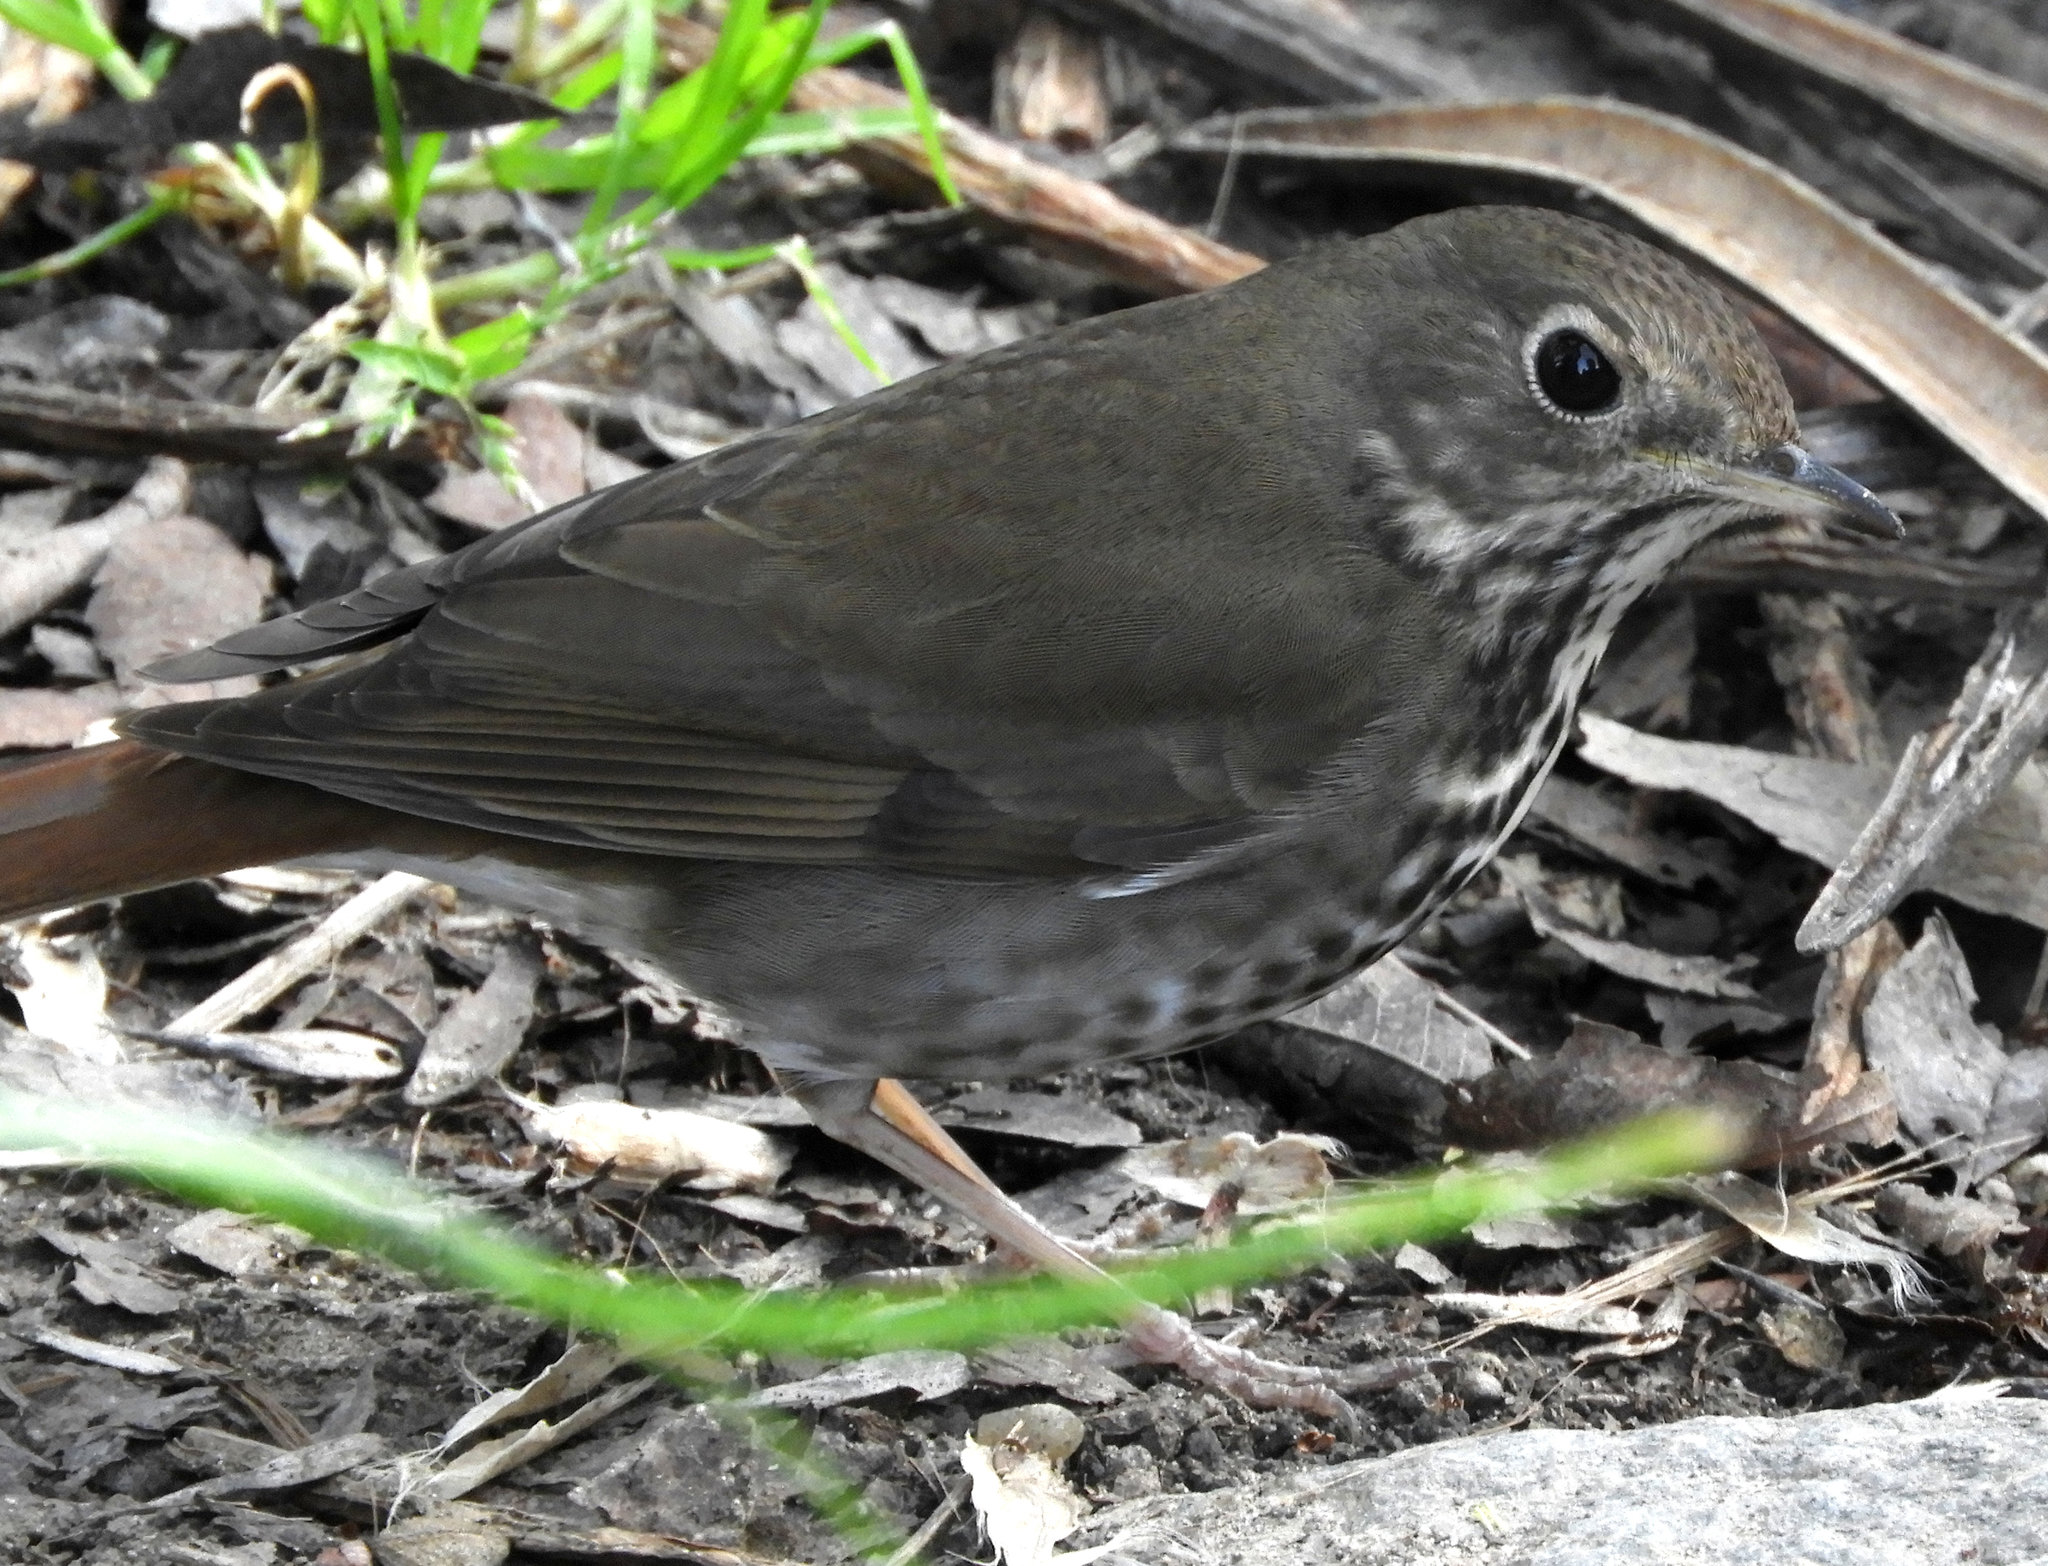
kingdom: Animalia
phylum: Chordata
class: Aves
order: Passeriformes
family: Turdidae
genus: Catharus
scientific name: Catharus guttatus
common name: Hermit thrush
